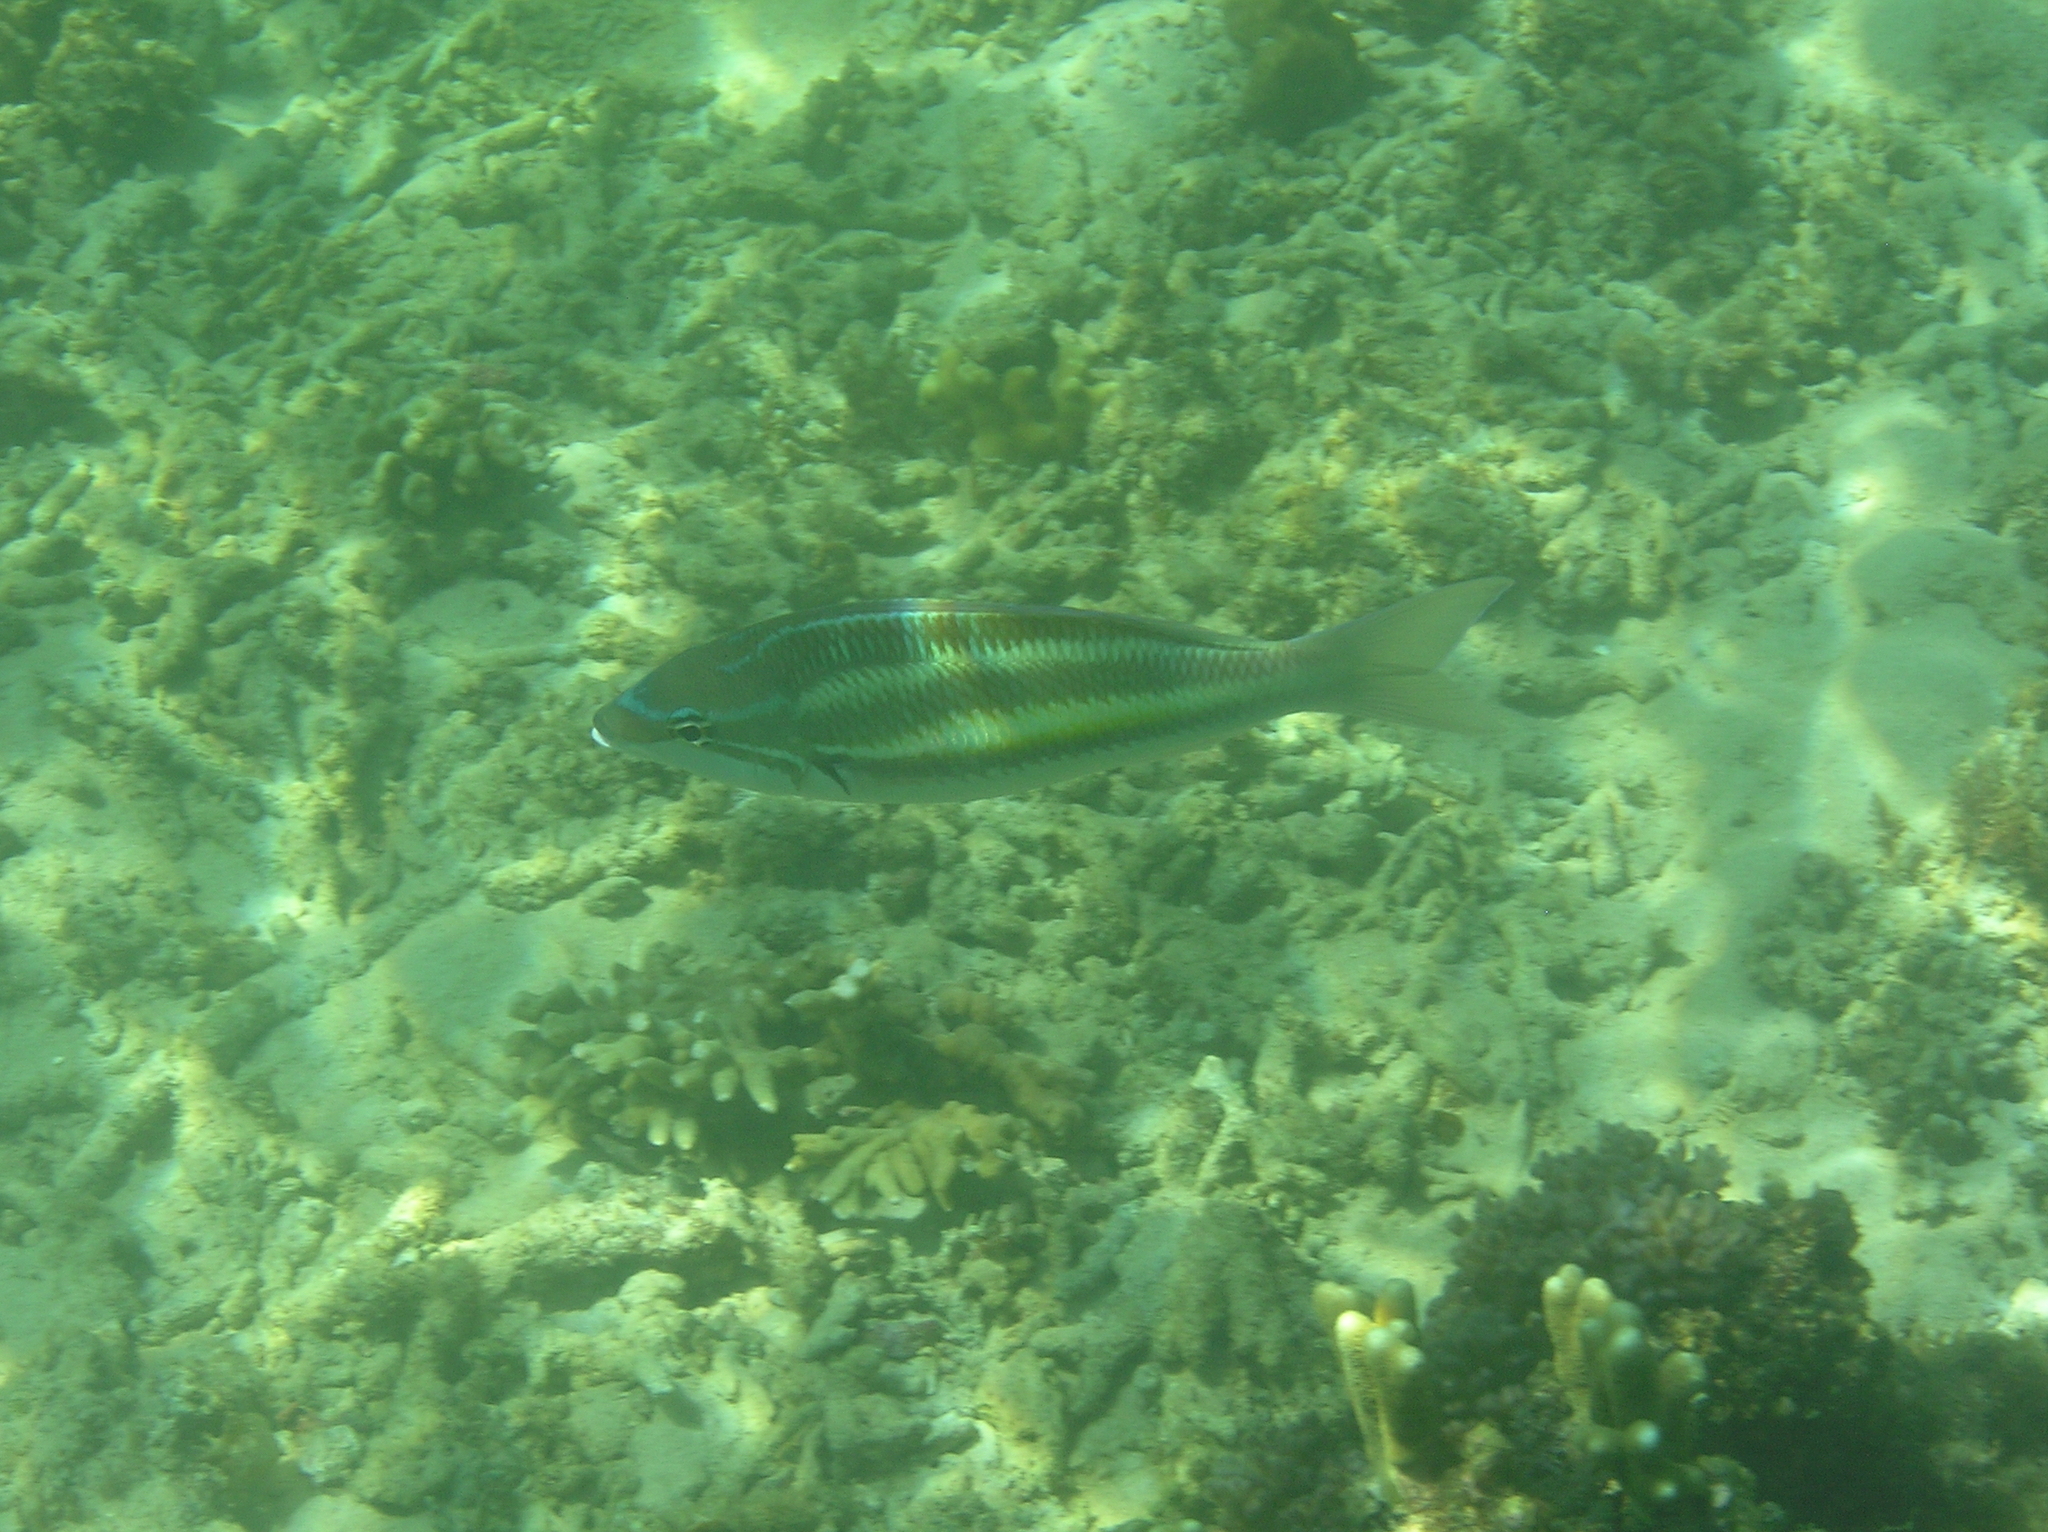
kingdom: Animalia
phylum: Chordata
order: Perciformes
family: Nemipteridae
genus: Pentapodus
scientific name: Pentapodus trivittatus
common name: Three-striped whiptail
